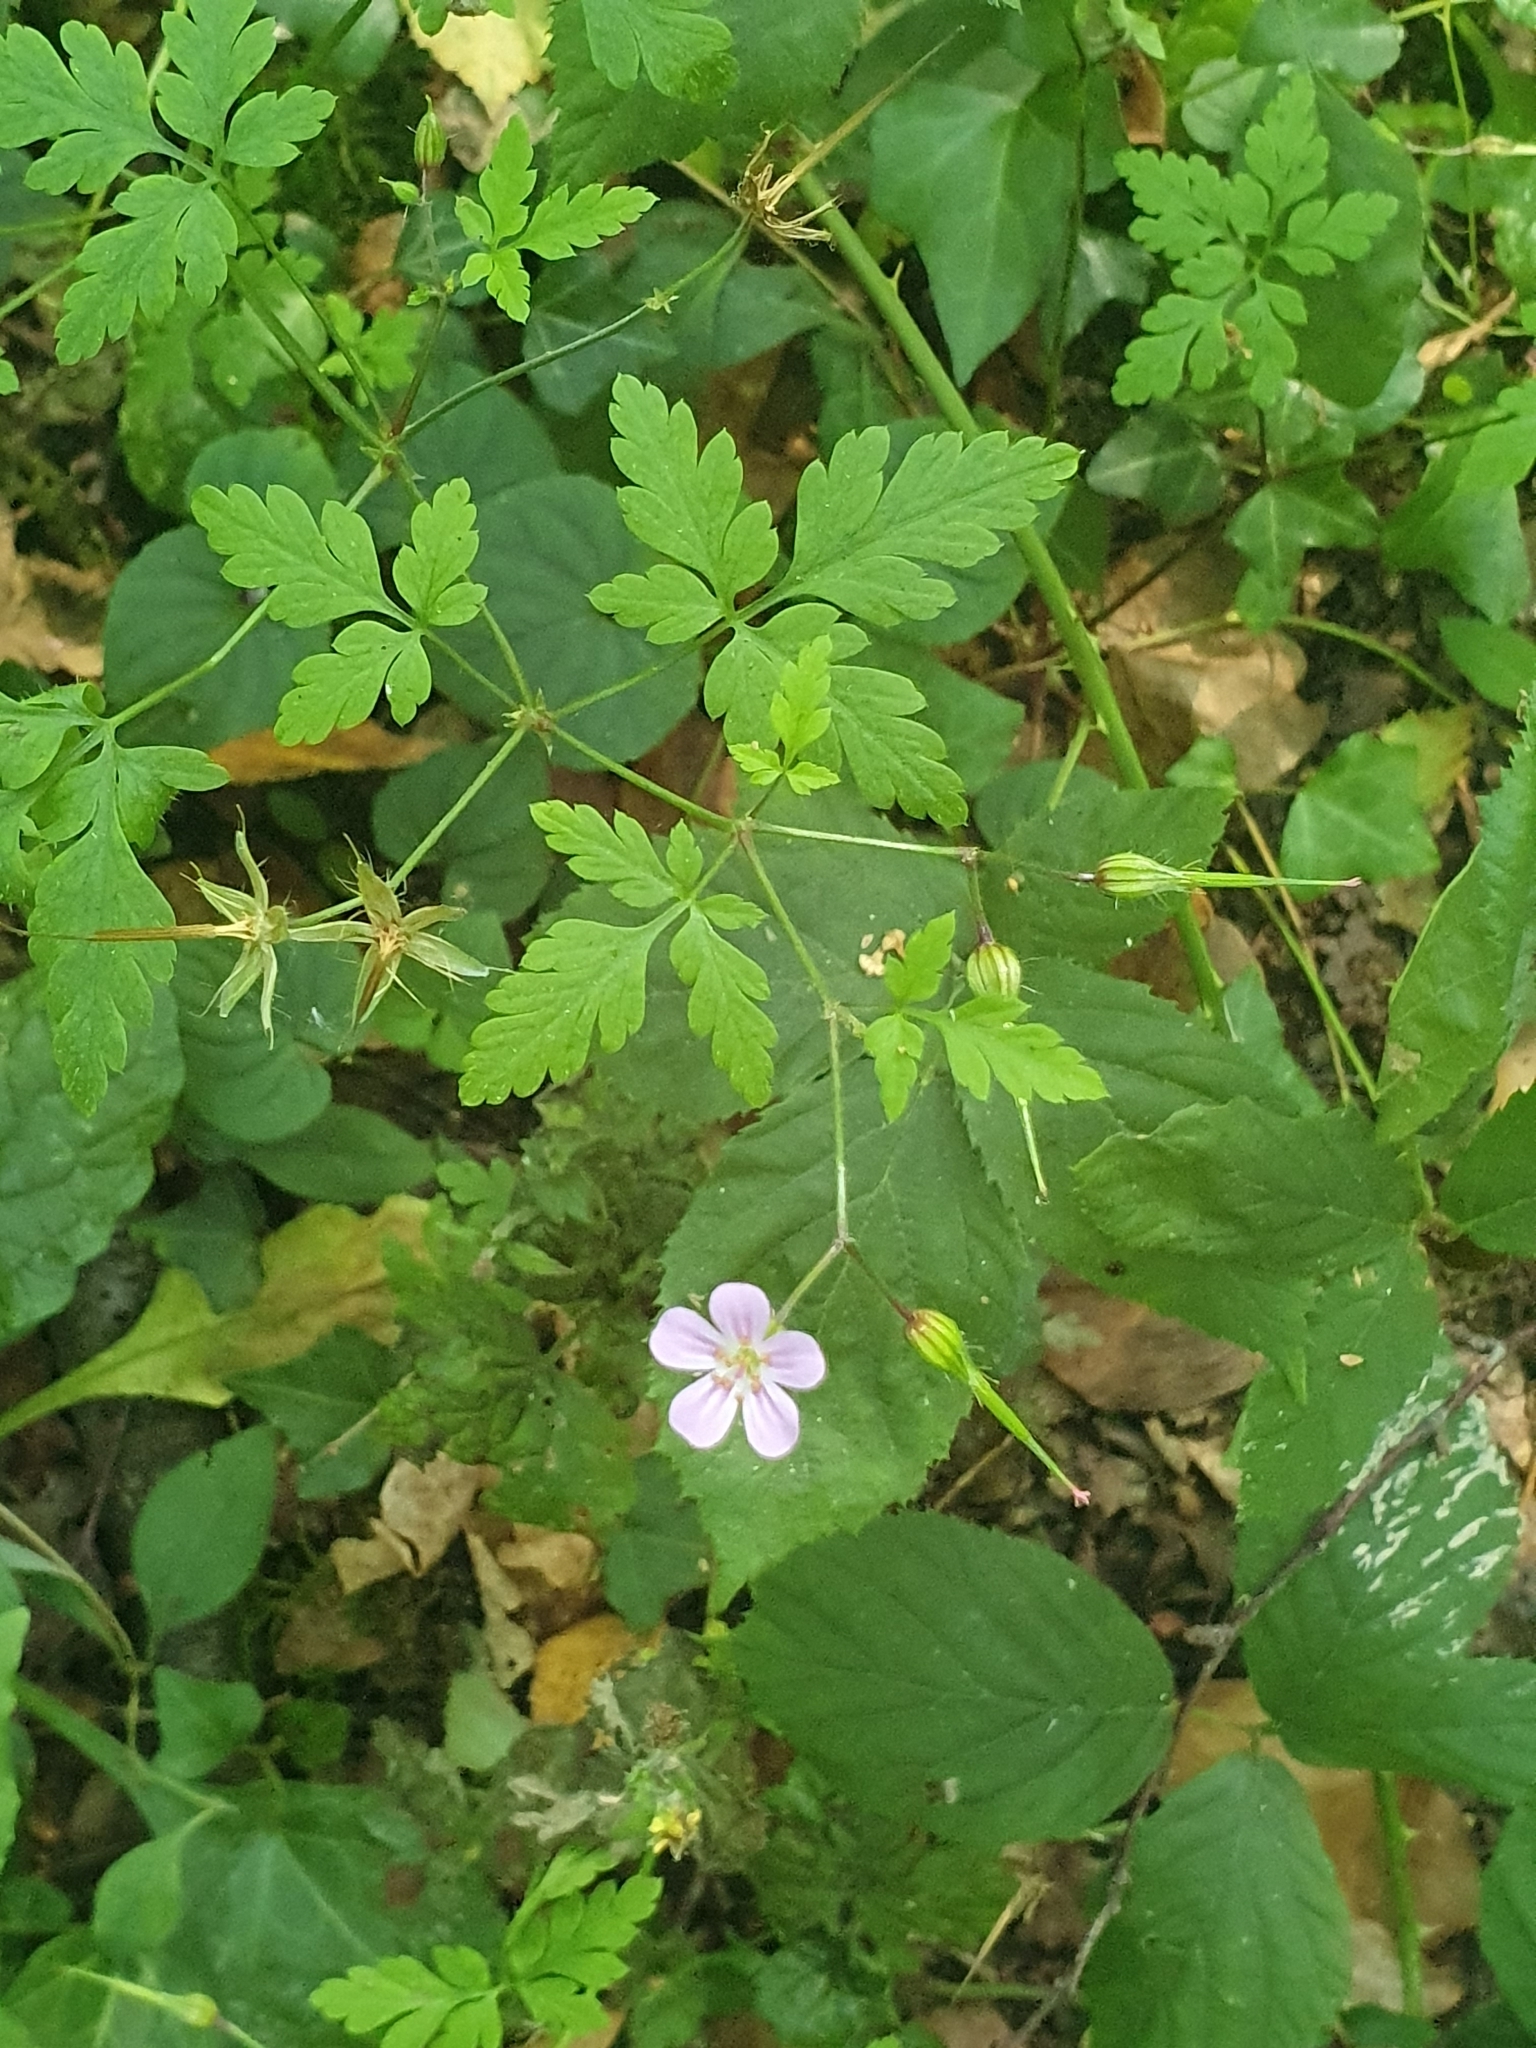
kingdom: Plantae
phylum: Tracheophyta
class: Magnoliopsida
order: Geraniales
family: Geraniaceae
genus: Geranium
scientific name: Geranium robertianum
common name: Herb-robert
